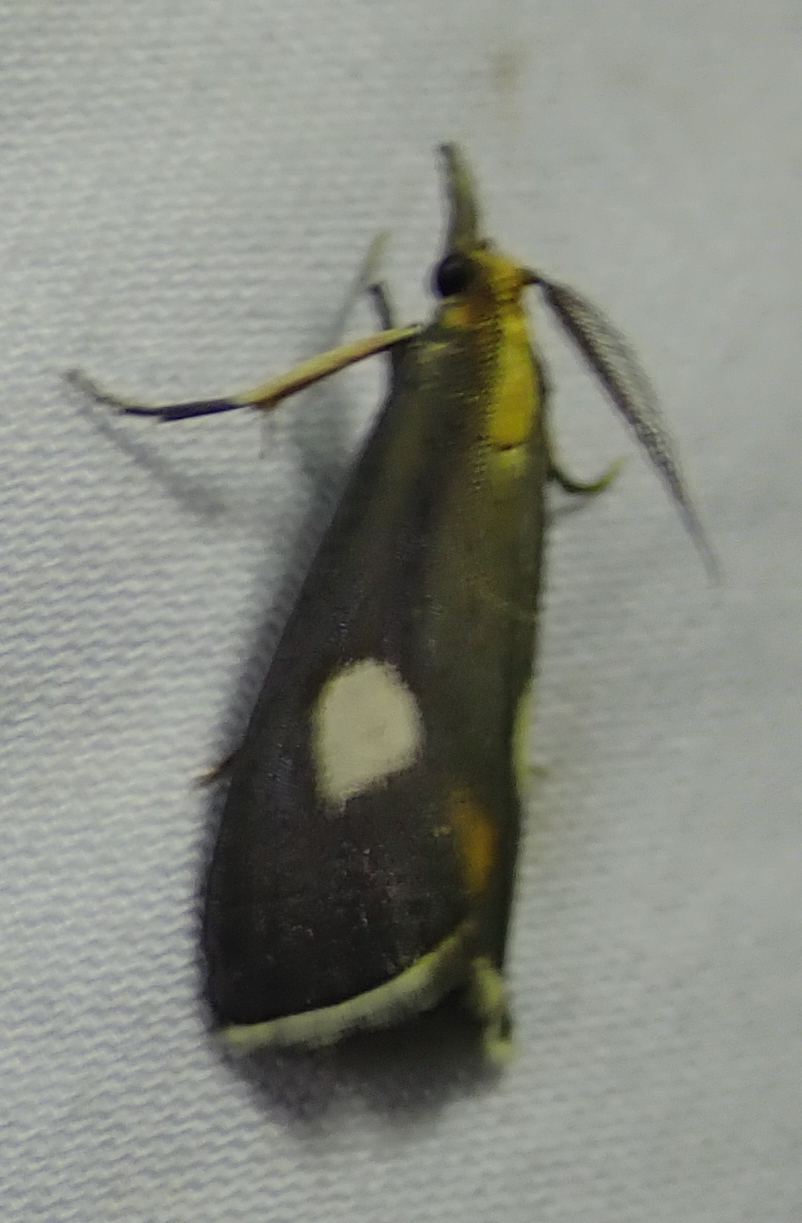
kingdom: Animalia
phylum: Arthropoda
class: Insecta
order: Lepidoptera
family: Pyralidae
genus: Sindris
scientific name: Sindris Episindris albimaculalis
